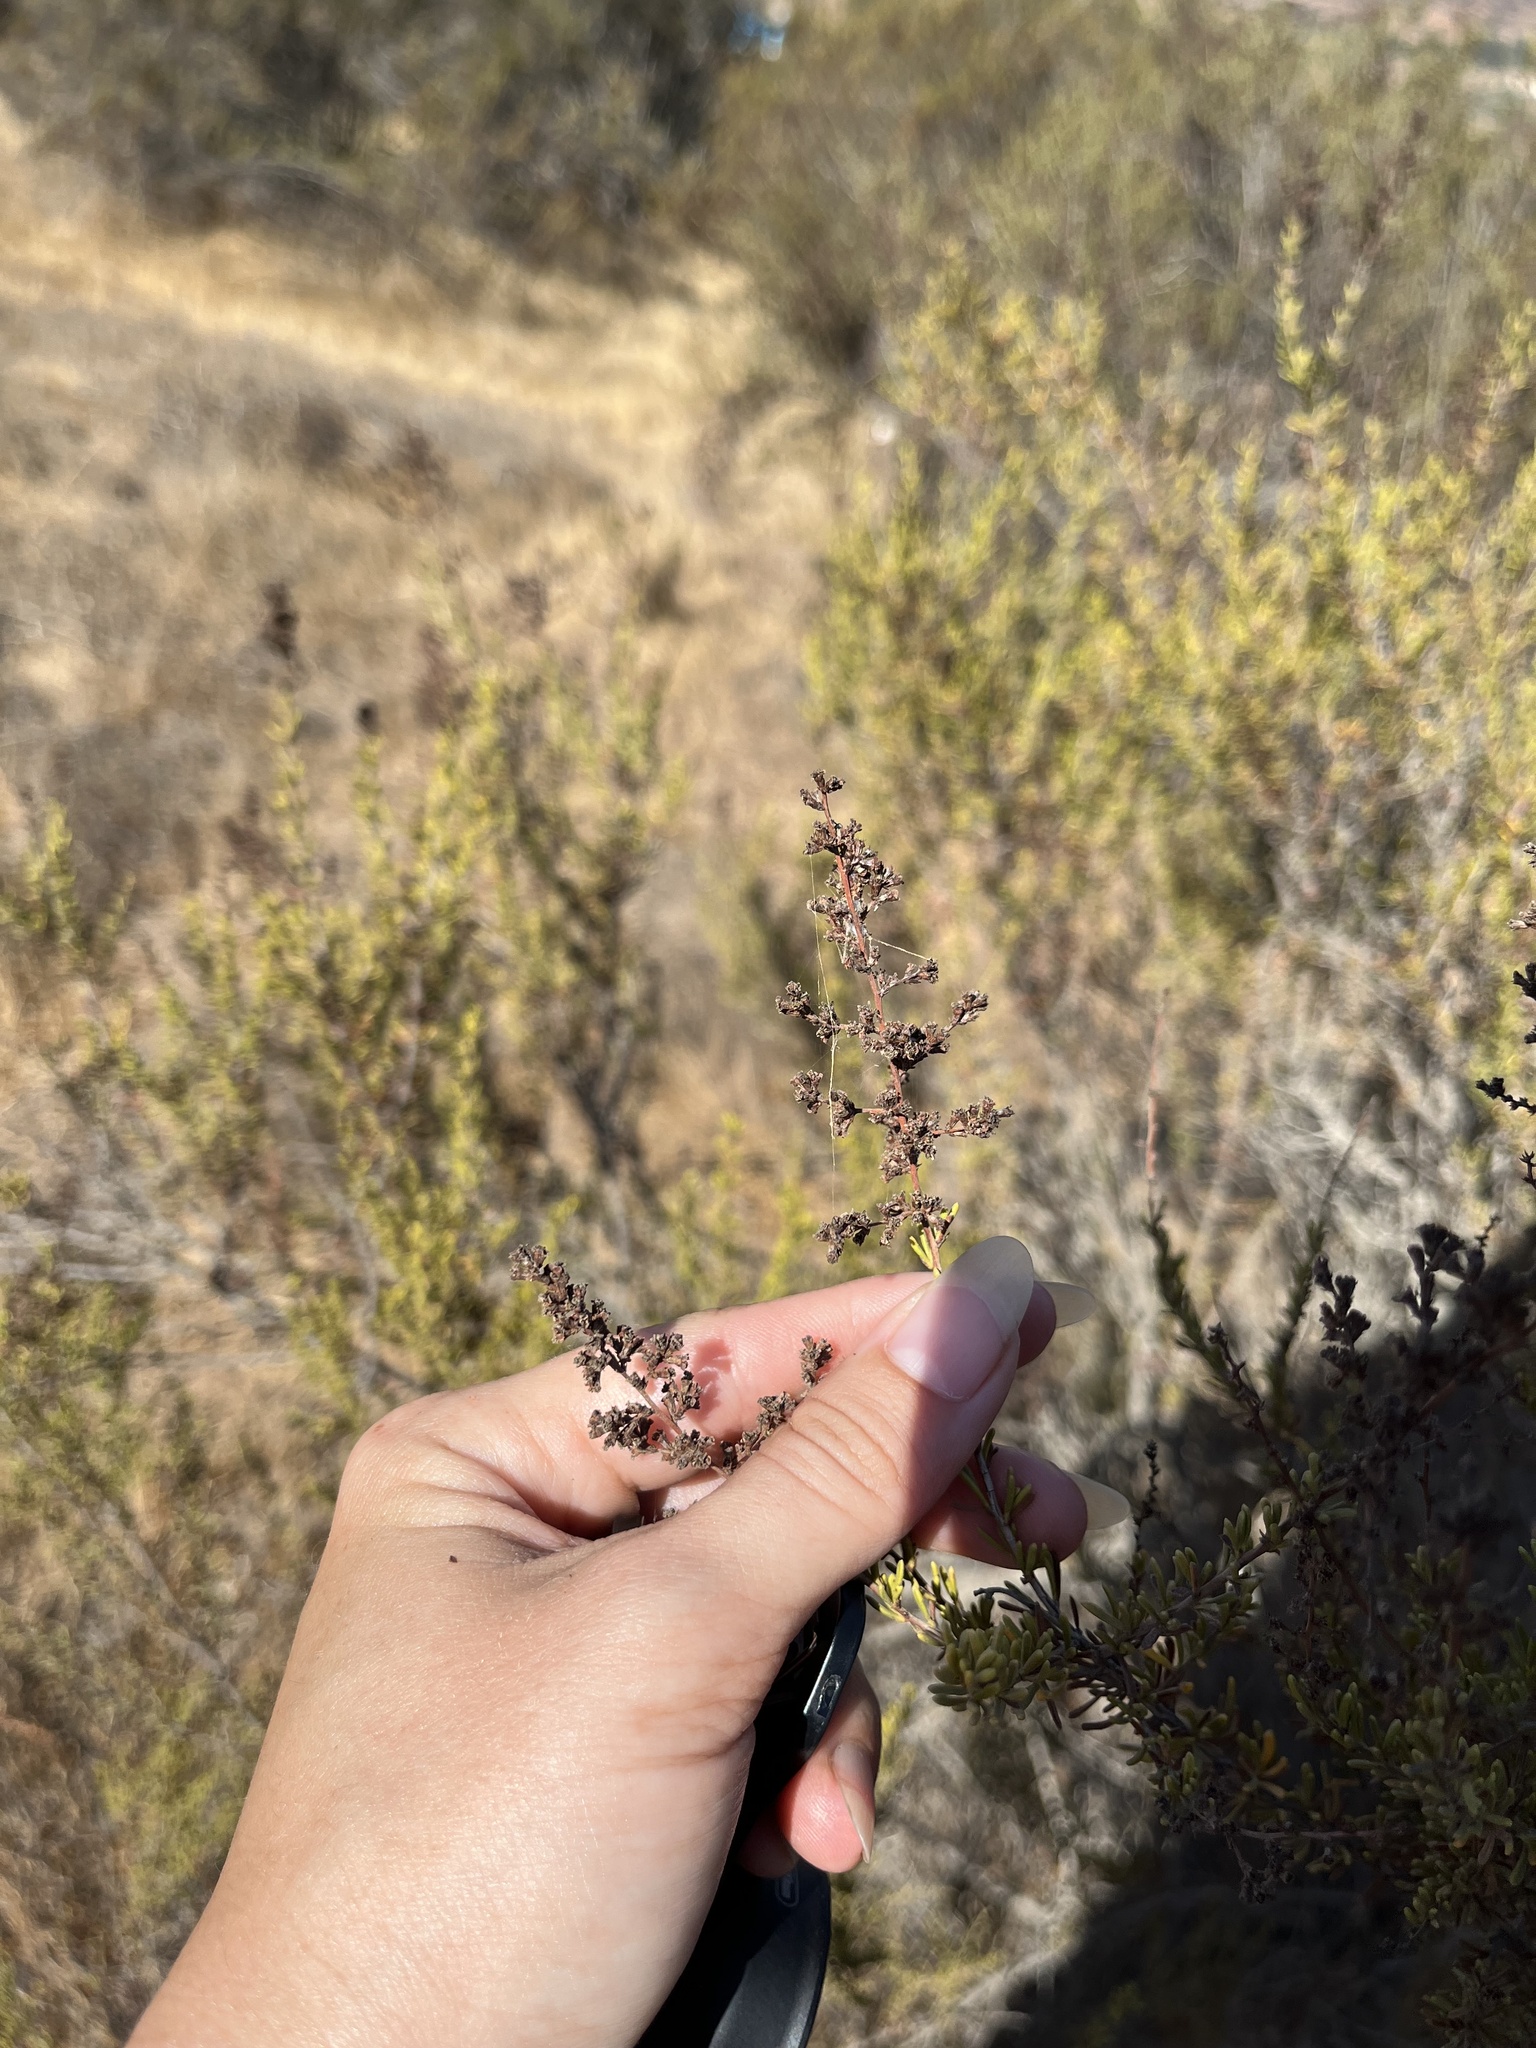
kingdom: Plantae
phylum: Tracheophyta
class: Magnoliopsida
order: Rosales
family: Rosaceae
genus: Adenostoma
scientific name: Adenostoma fasciculatum
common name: Chamise
